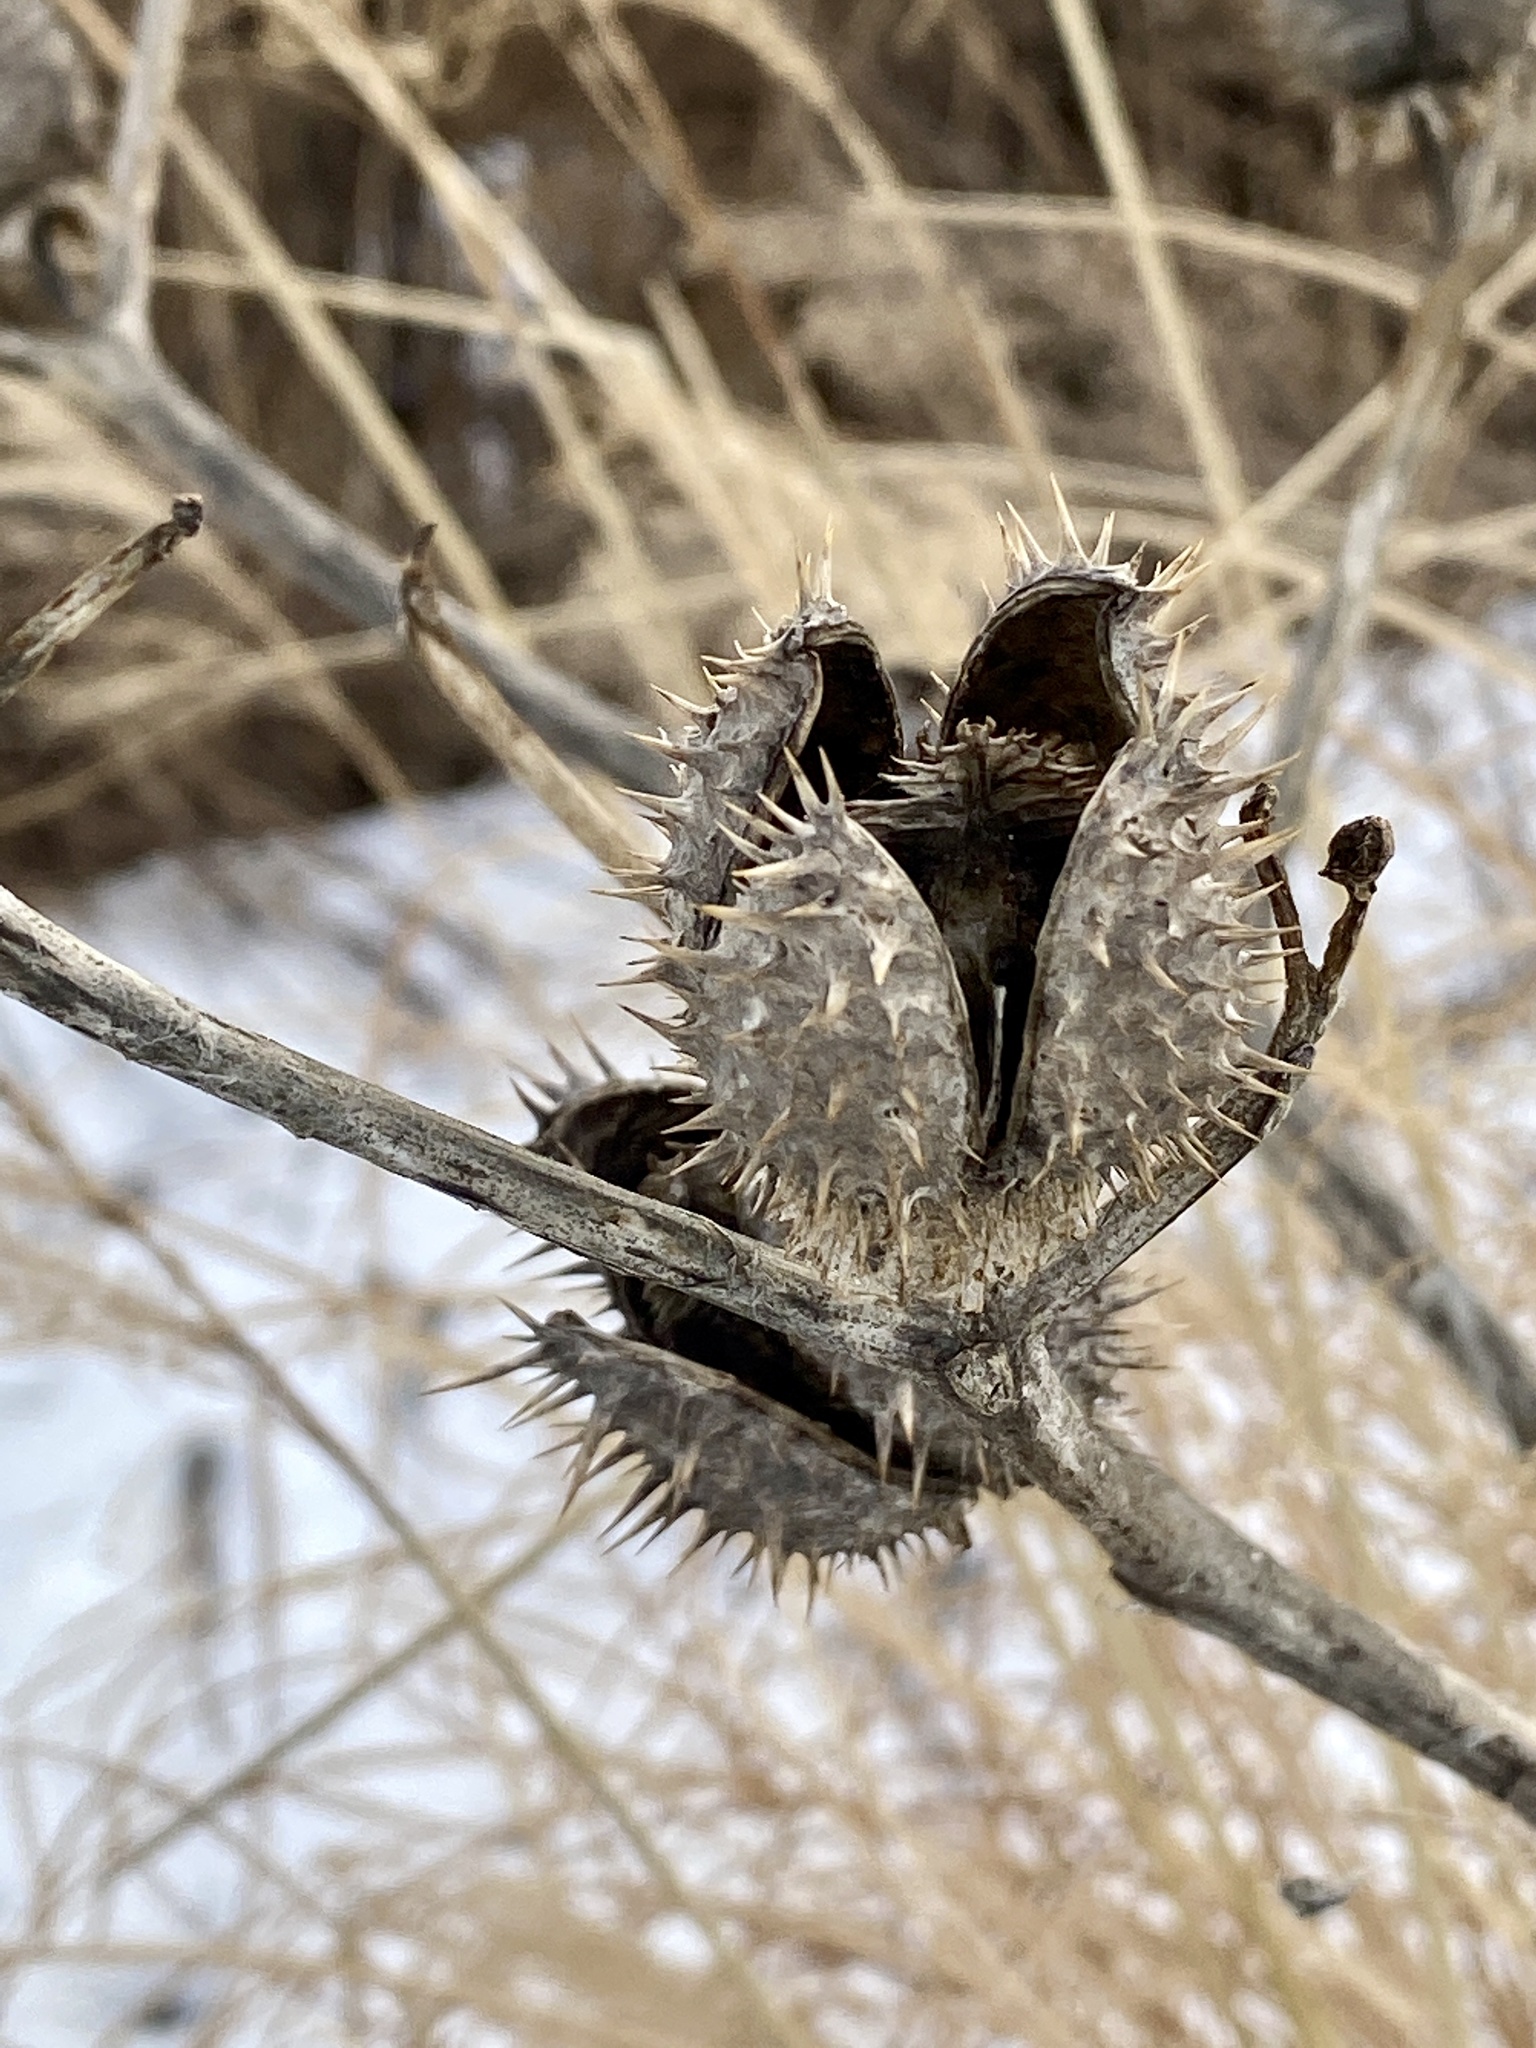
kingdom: Plantae
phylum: Tracheophyta
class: Magnoliopsida
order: Solanales
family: Solanaceae
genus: Datura
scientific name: Datura stramonium
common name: Thorn-apple
